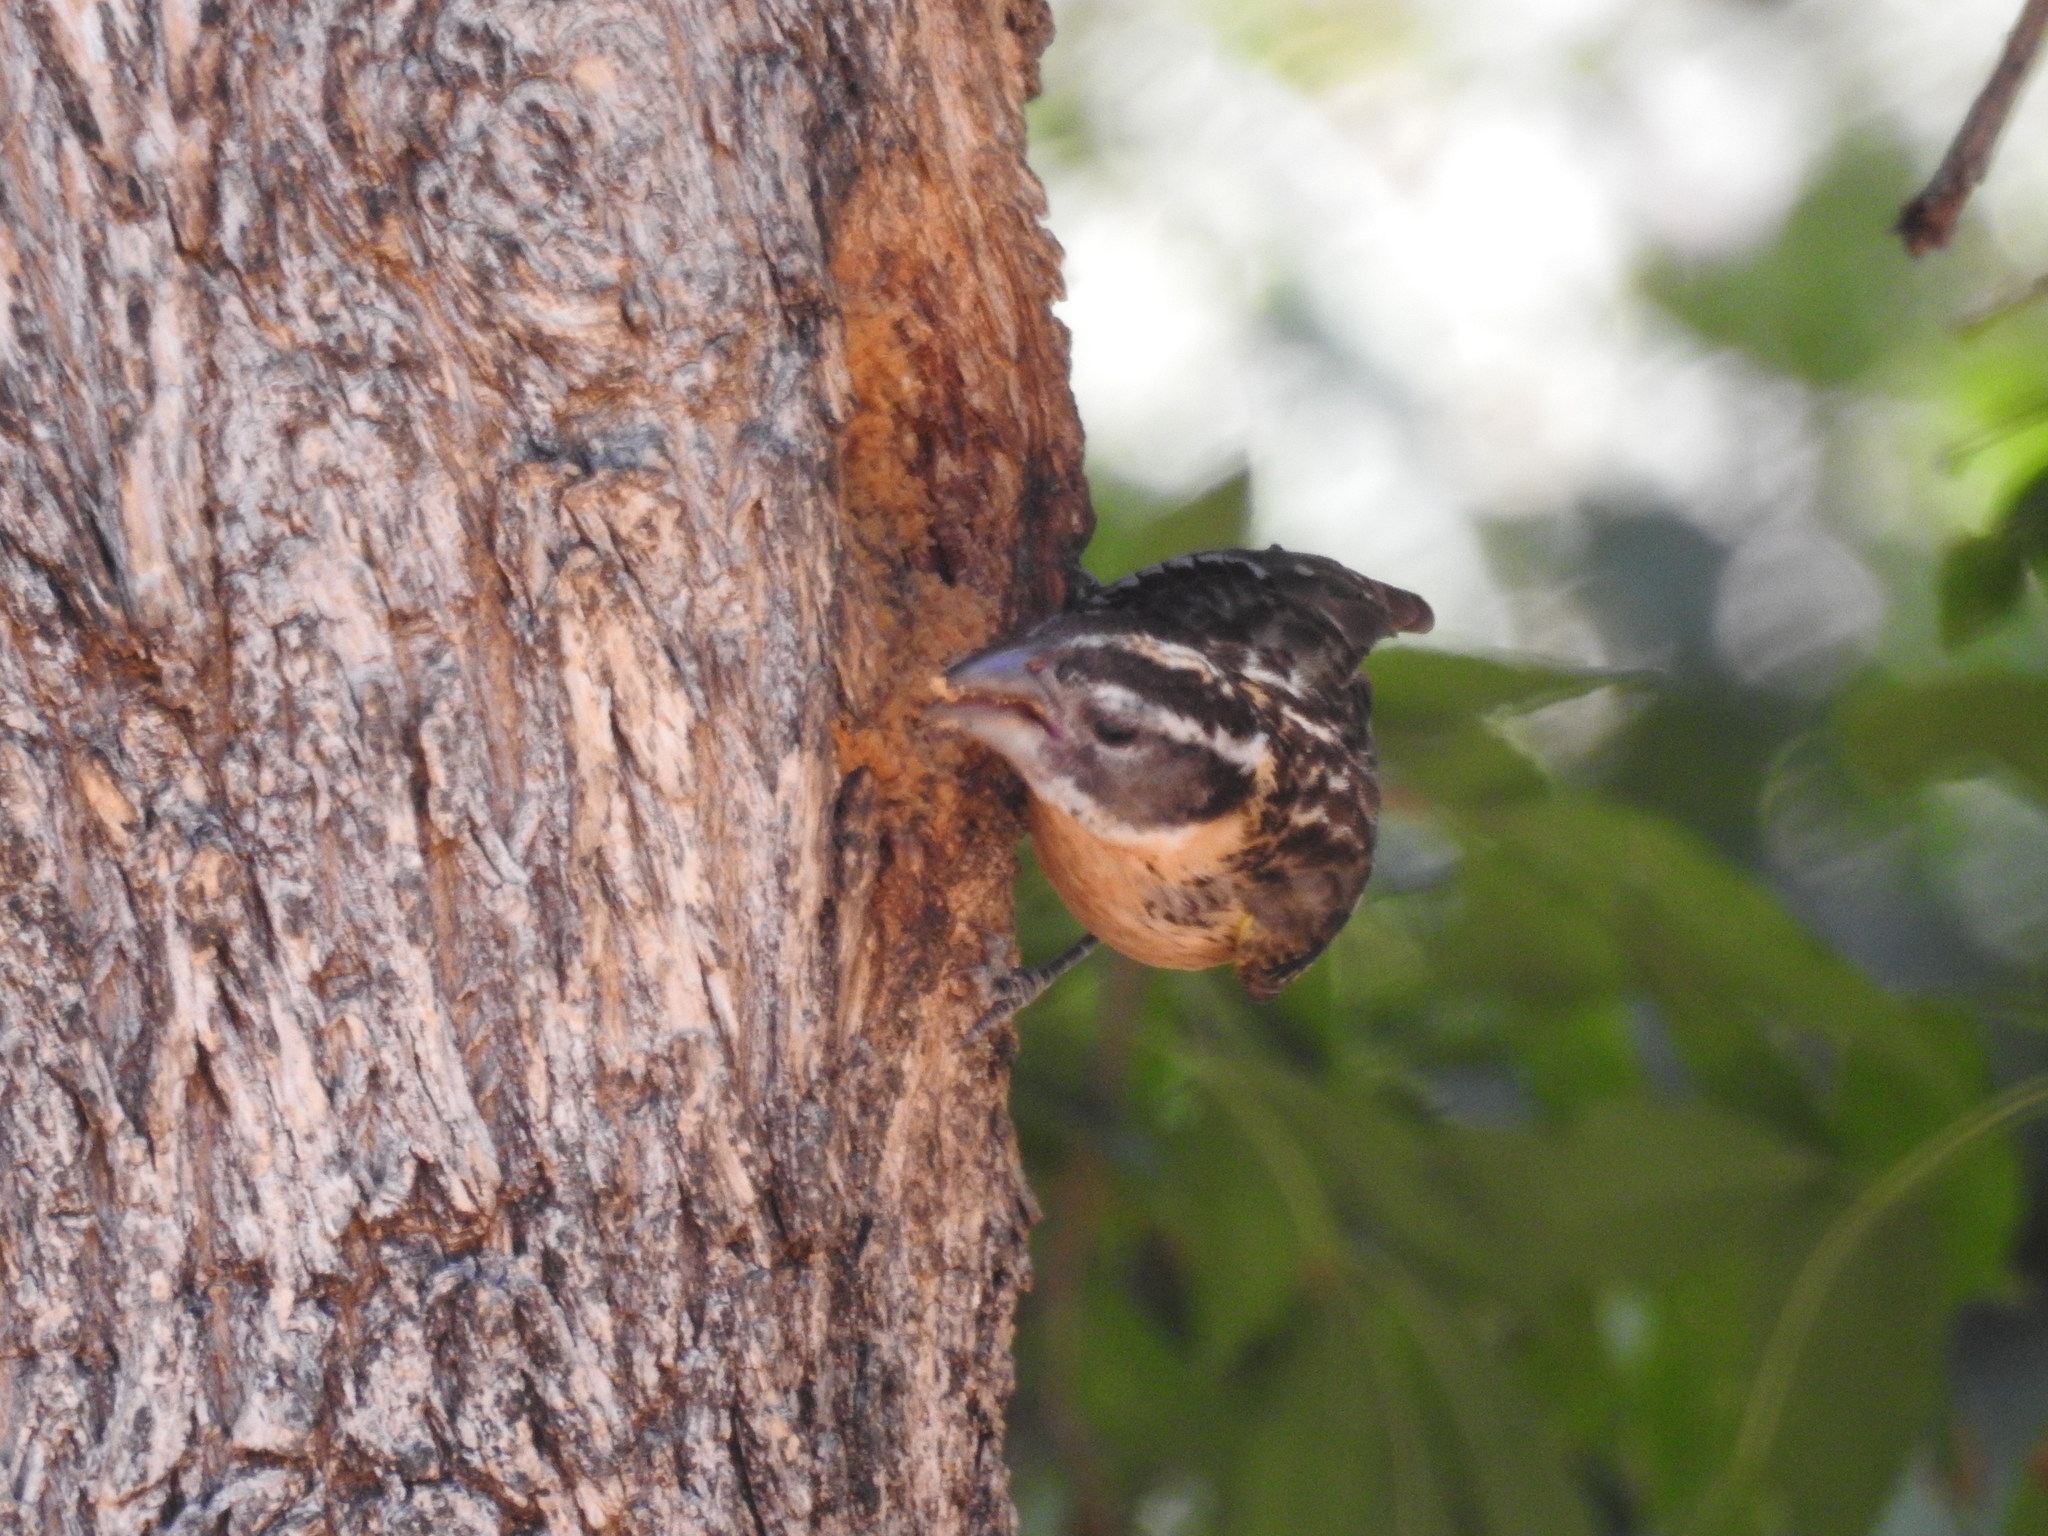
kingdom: Animalia
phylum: Chordata
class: Aves
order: Passeriformes
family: Cardinalidae
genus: Pheucticus
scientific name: Pheucticus melanocephalus
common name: Black-headed grosbeak
